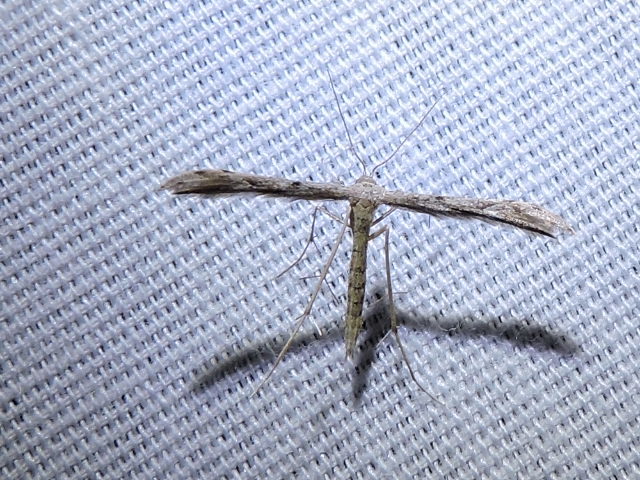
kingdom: Animalia
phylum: Arthropoda
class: Insecta
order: Lepidoptera
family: Pterophoridae
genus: Pselnophorus
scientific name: Pselnophorus belfragei
